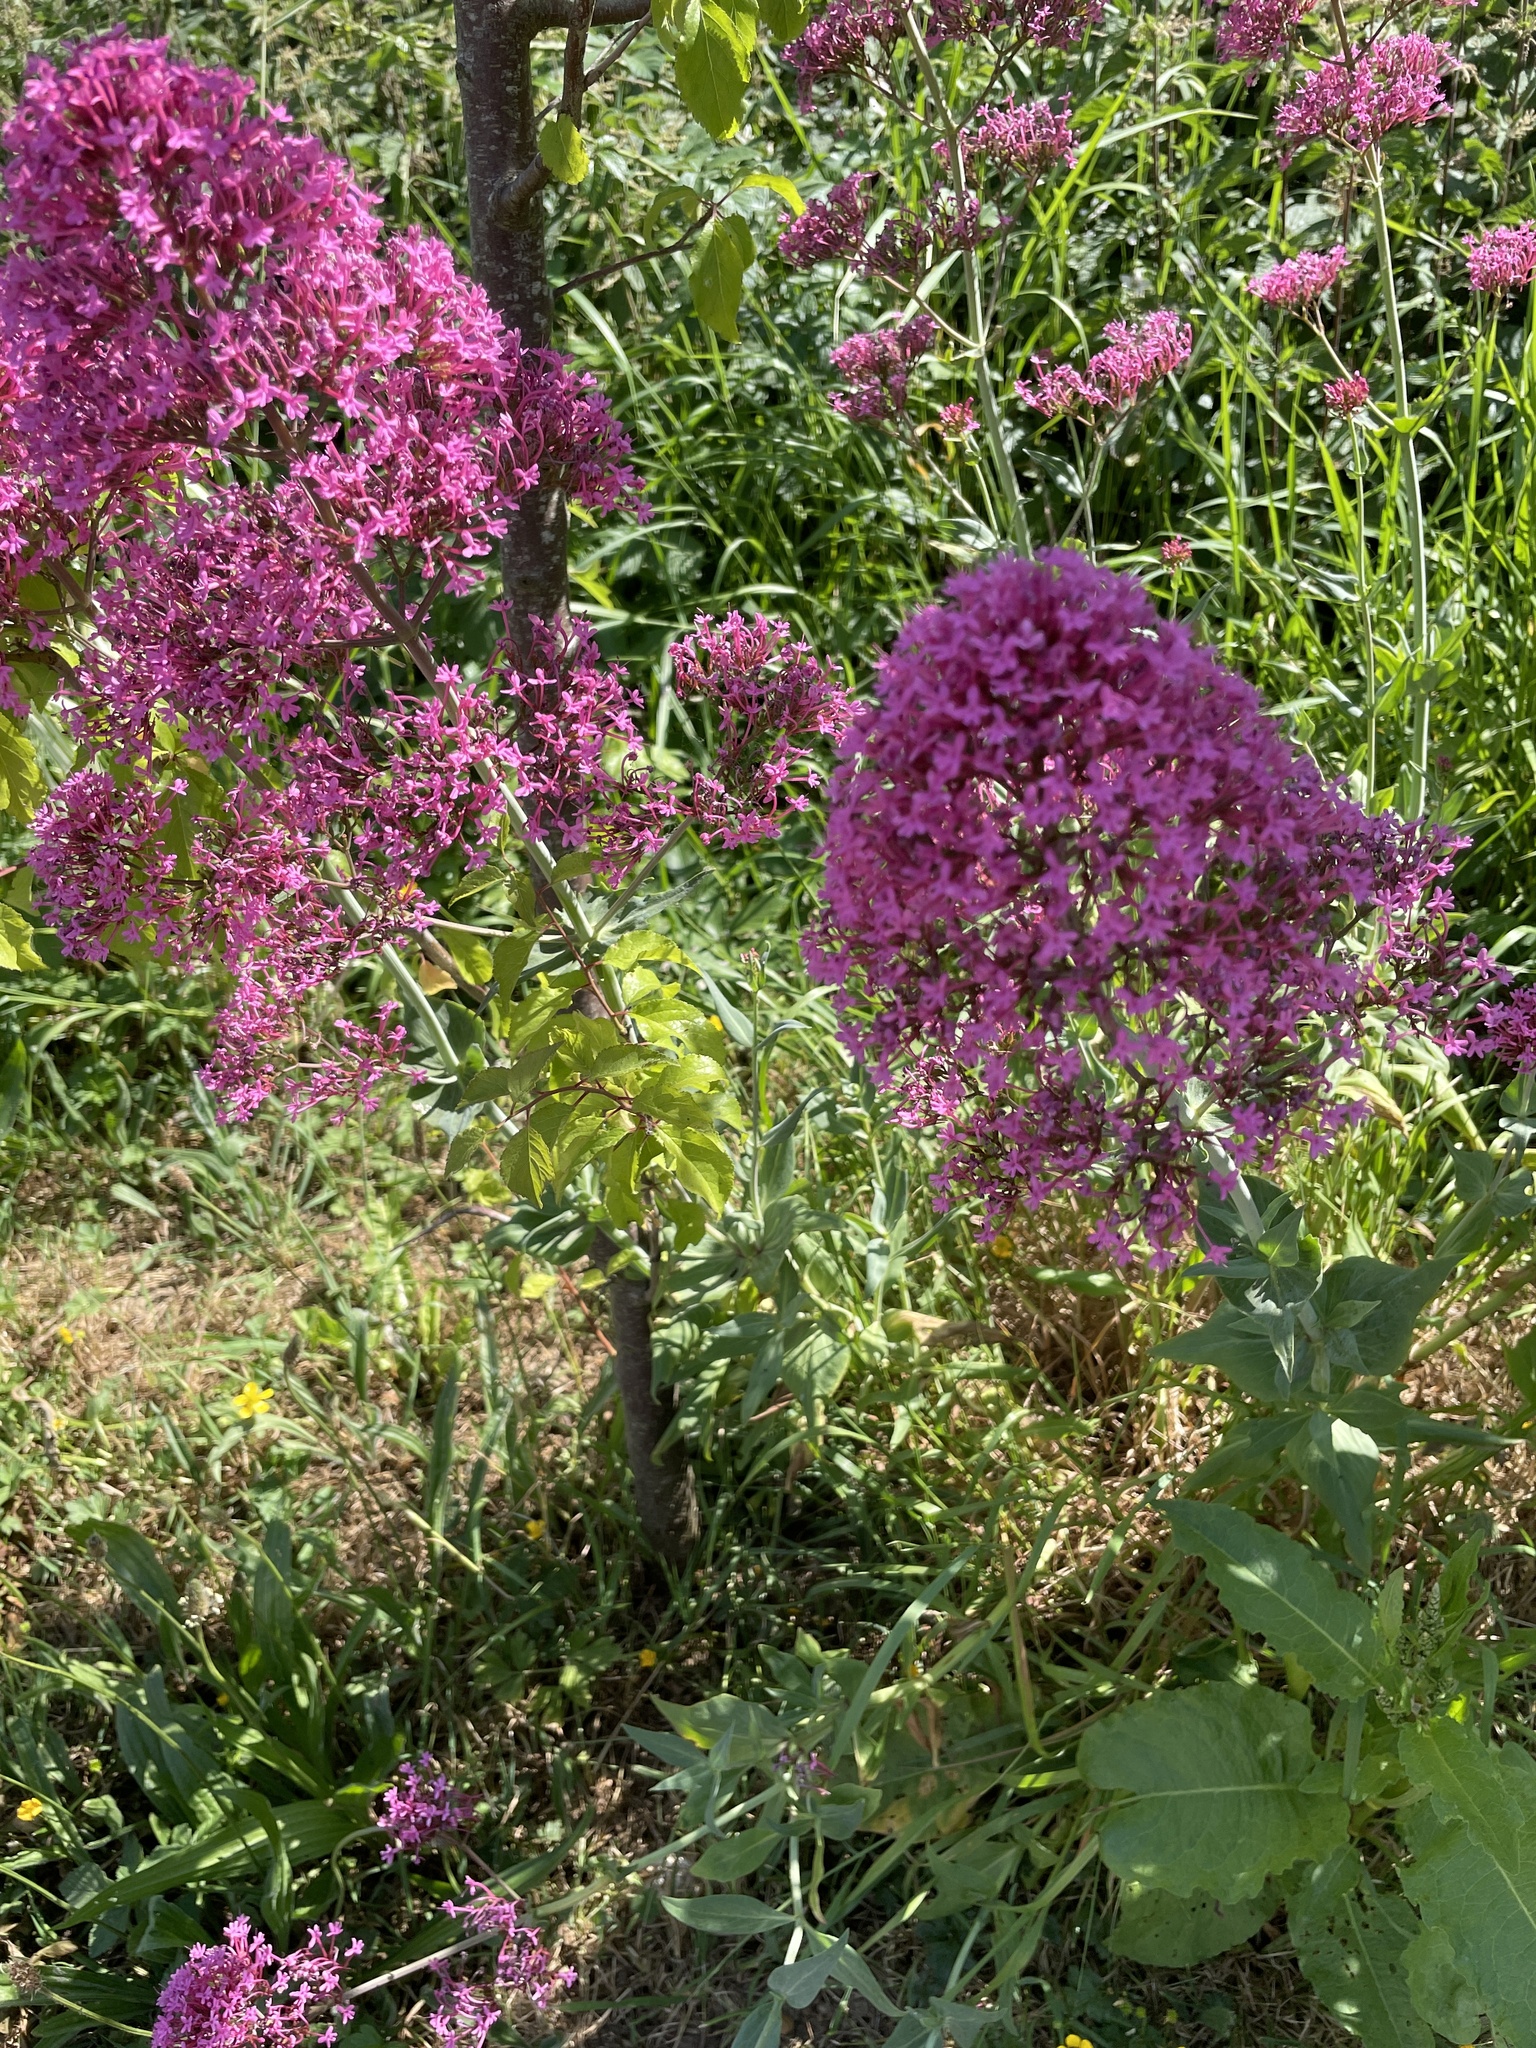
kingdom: Plantae
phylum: Tracheophyta
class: Magnoliopsida
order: Dipsacales
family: Caprifoliaceae
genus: Centranthus
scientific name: Centranthus ruber
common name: Red valerian
